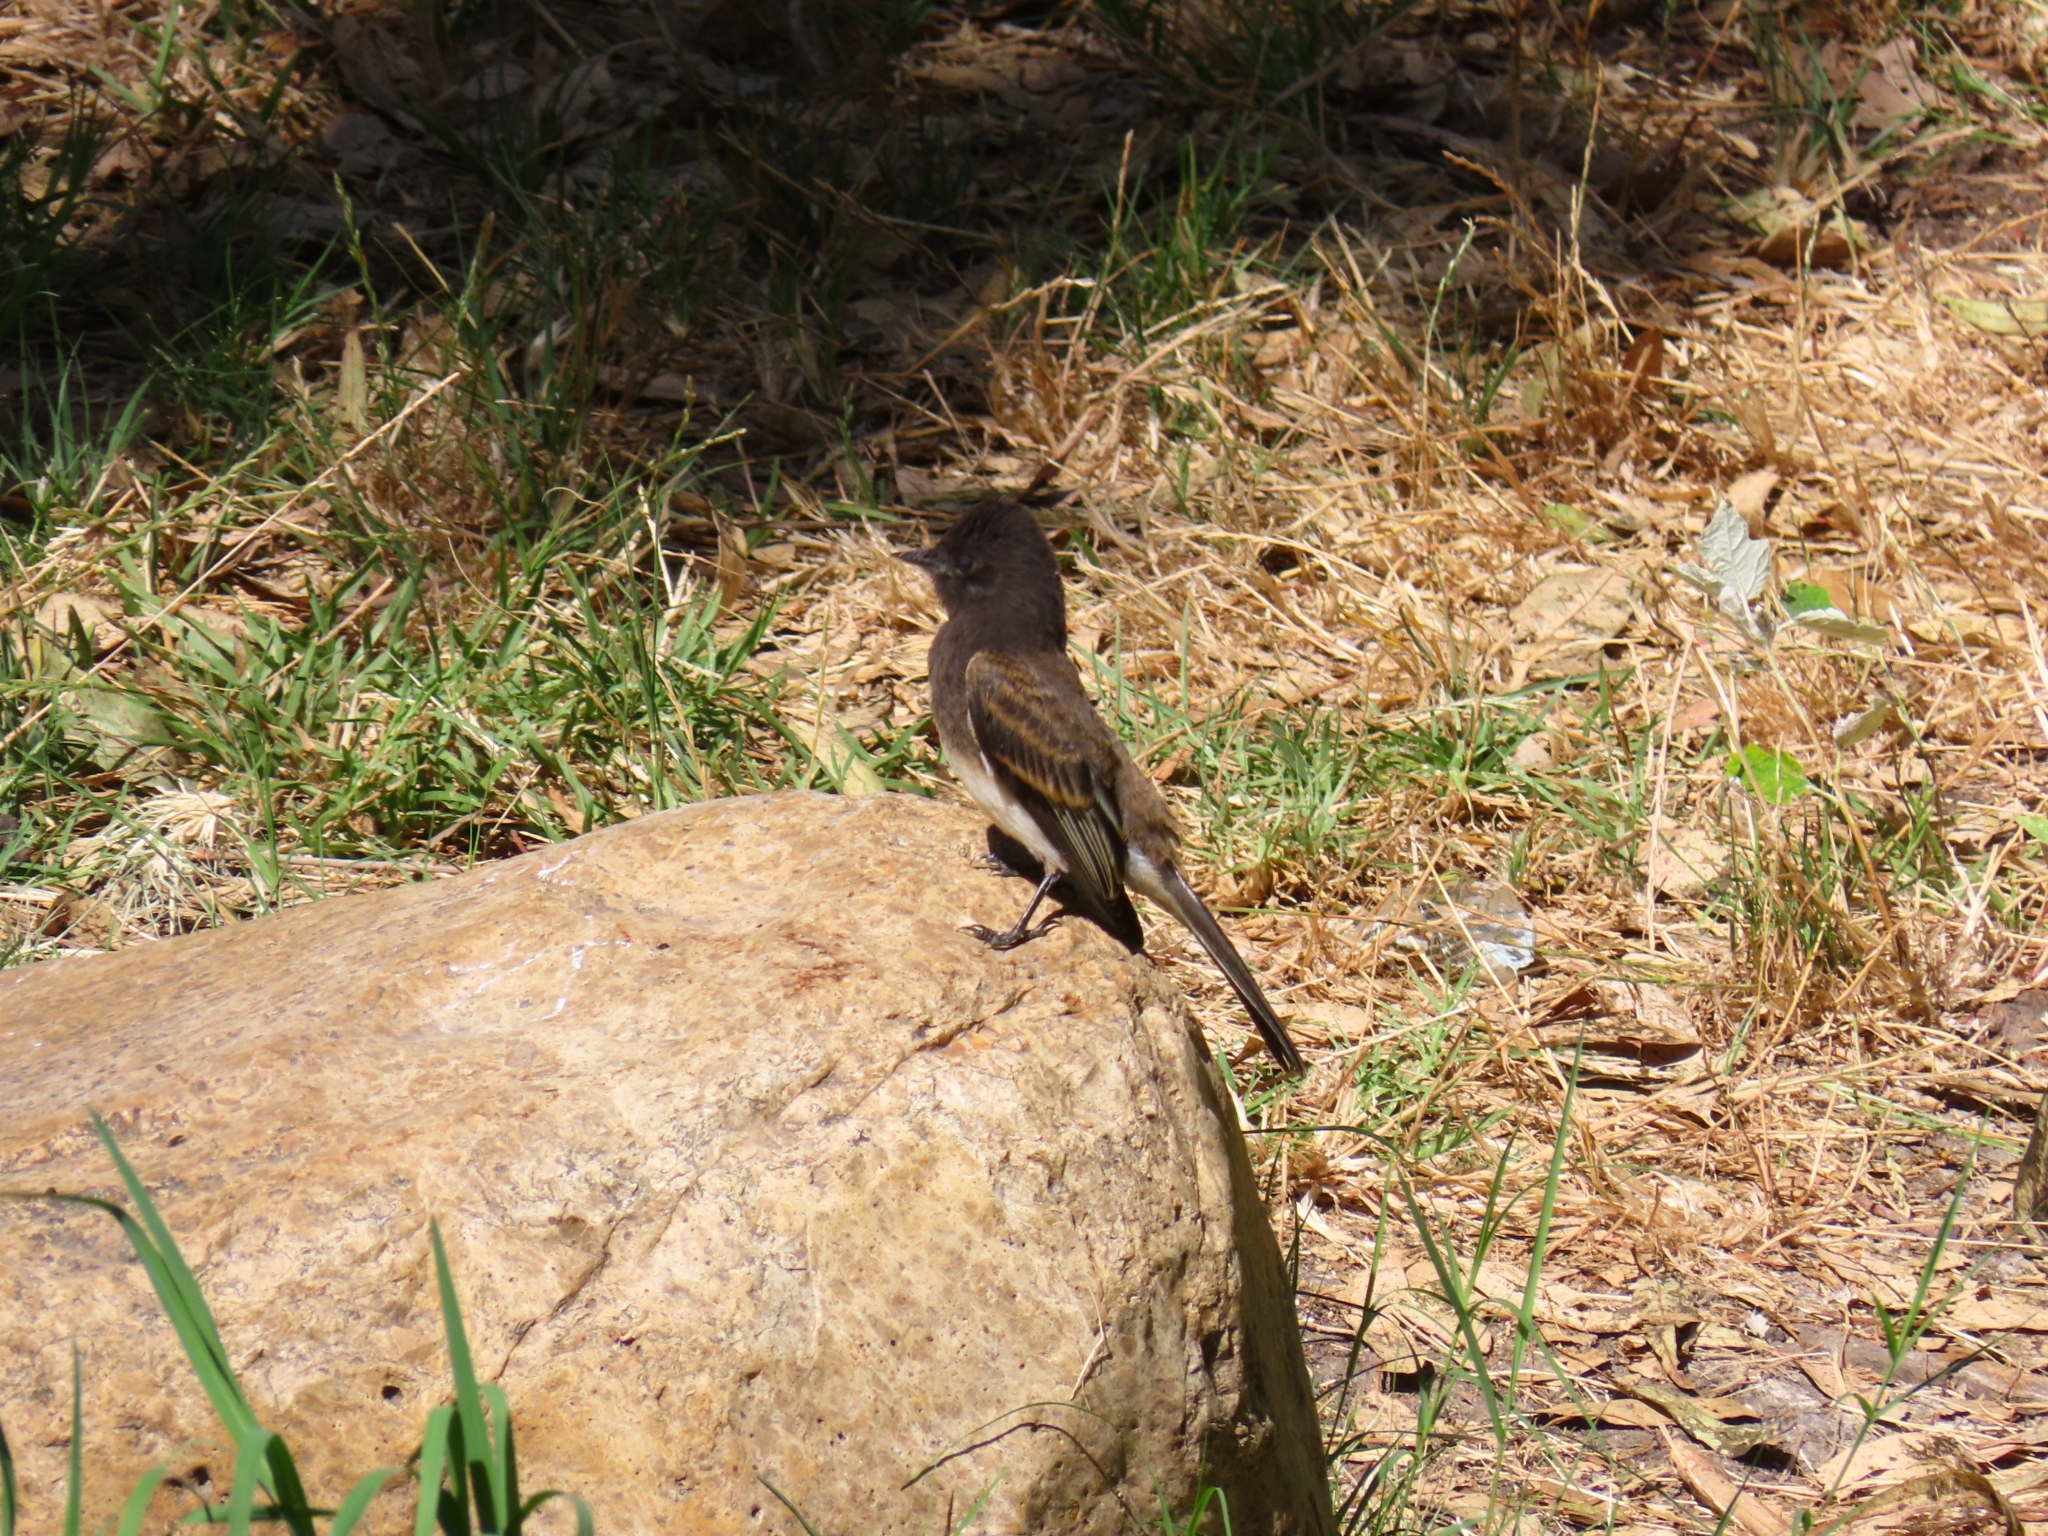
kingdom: Animalia
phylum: Chordata
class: Aves
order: Passeriformes
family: Tyrannidae
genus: Sayornis
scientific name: Sayornis nigricans
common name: Black phoebe
